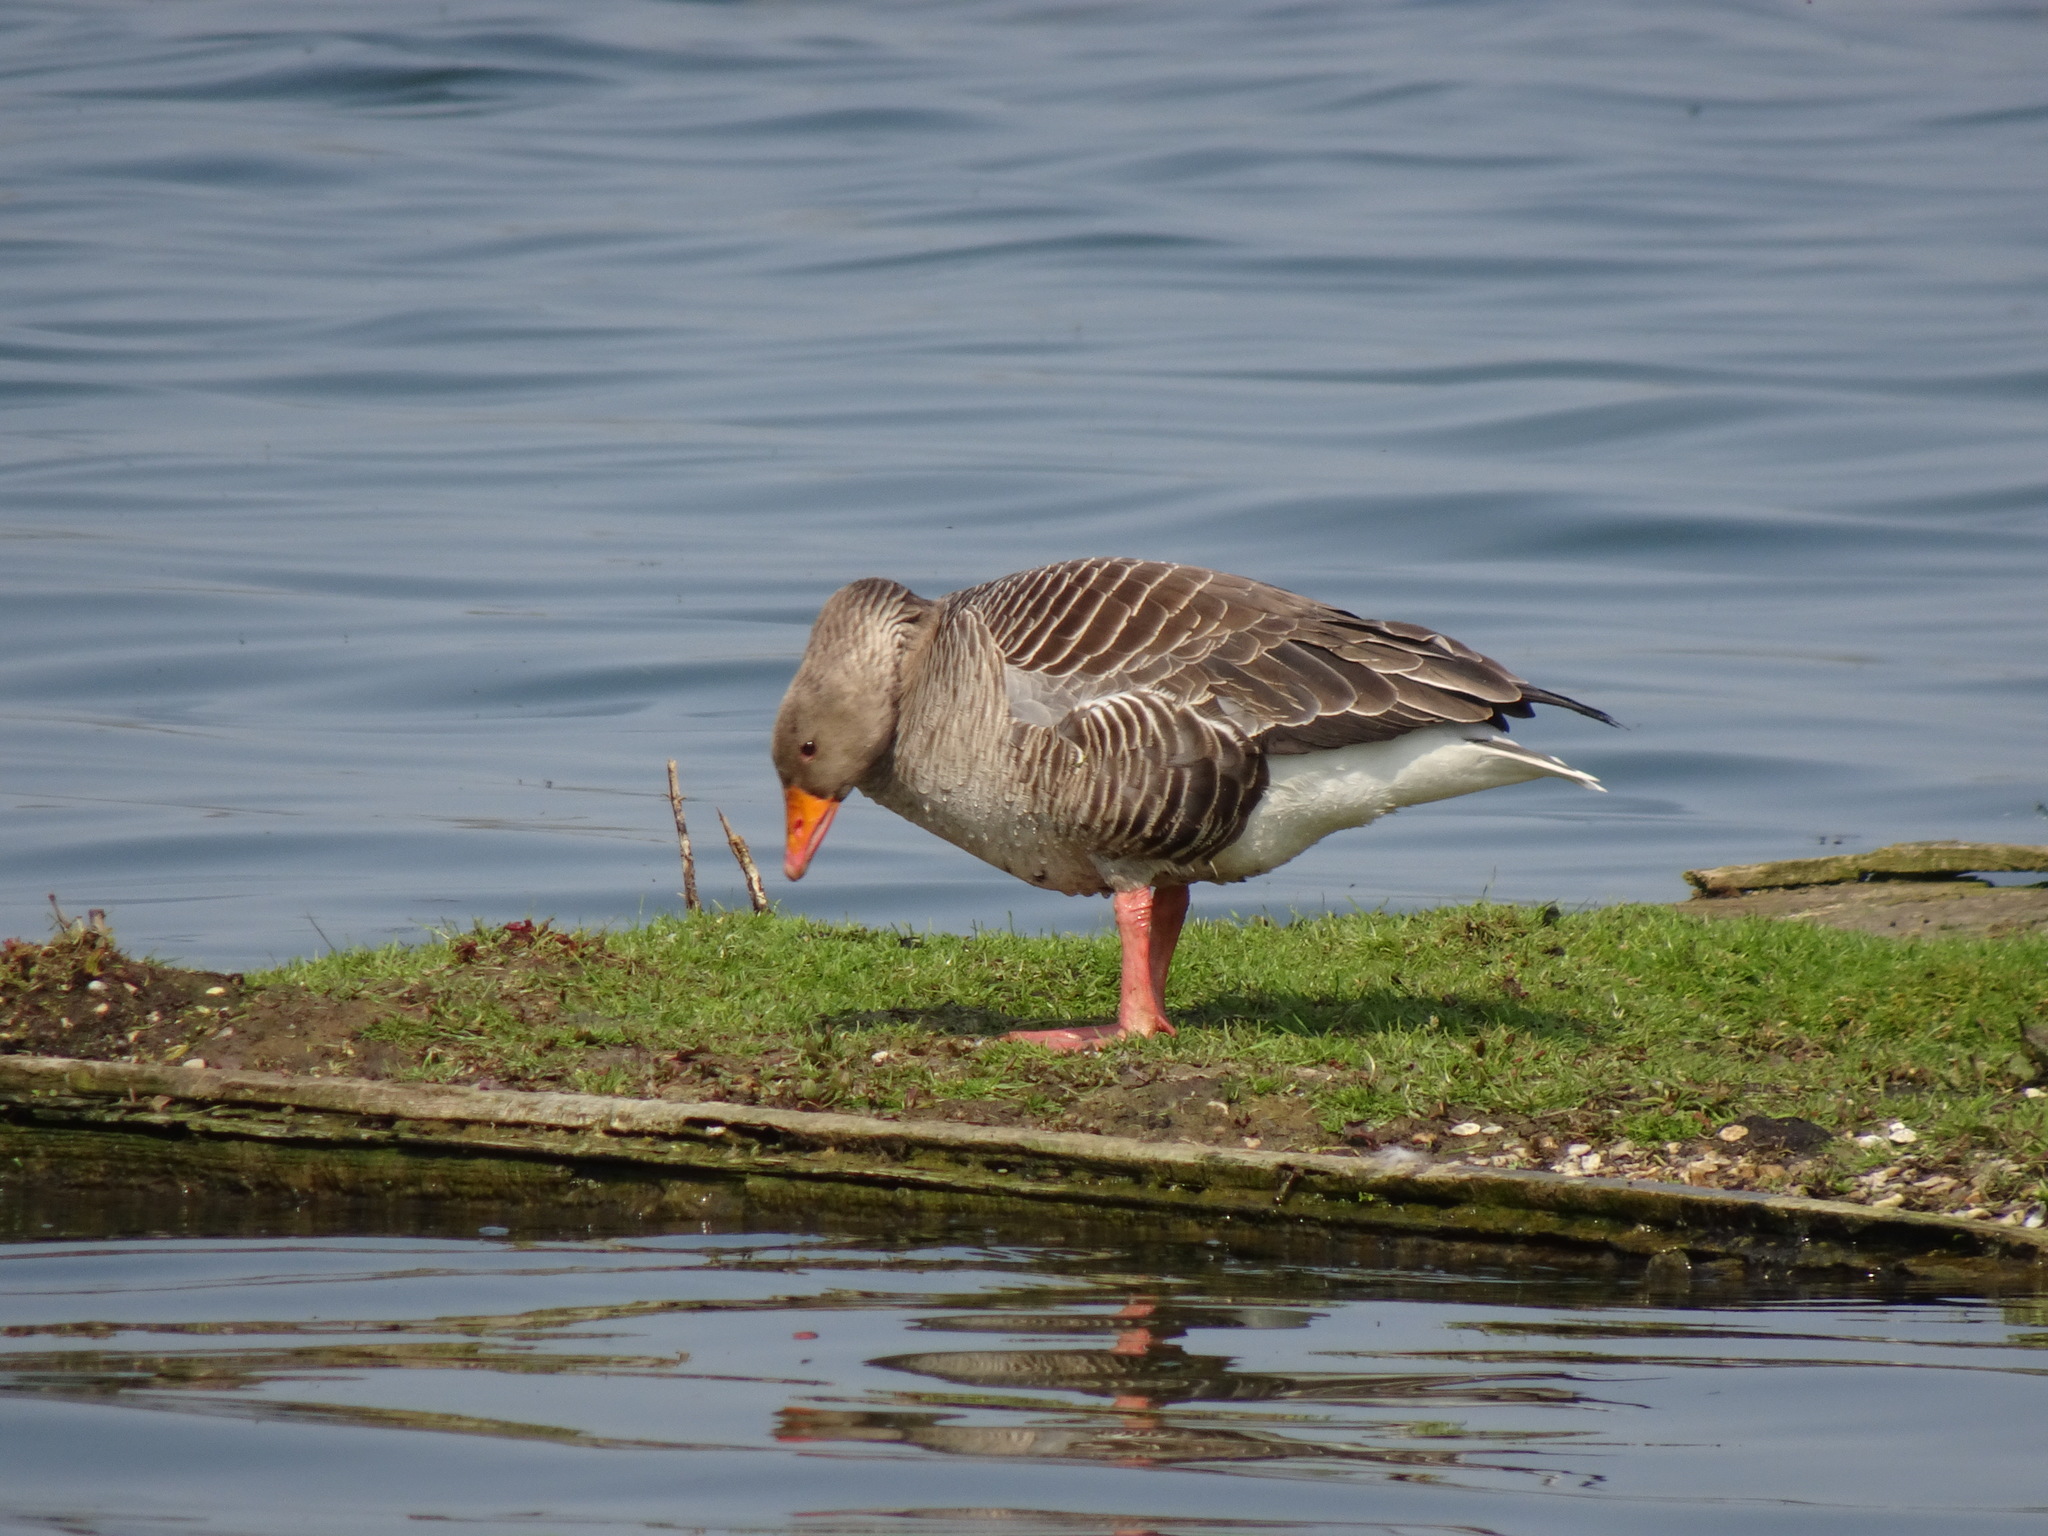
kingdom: Animalia
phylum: Chordata
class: Aves
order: Anseriformes
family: Anatidae
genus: Anser
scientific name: Anser anser
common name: Greylag goose
